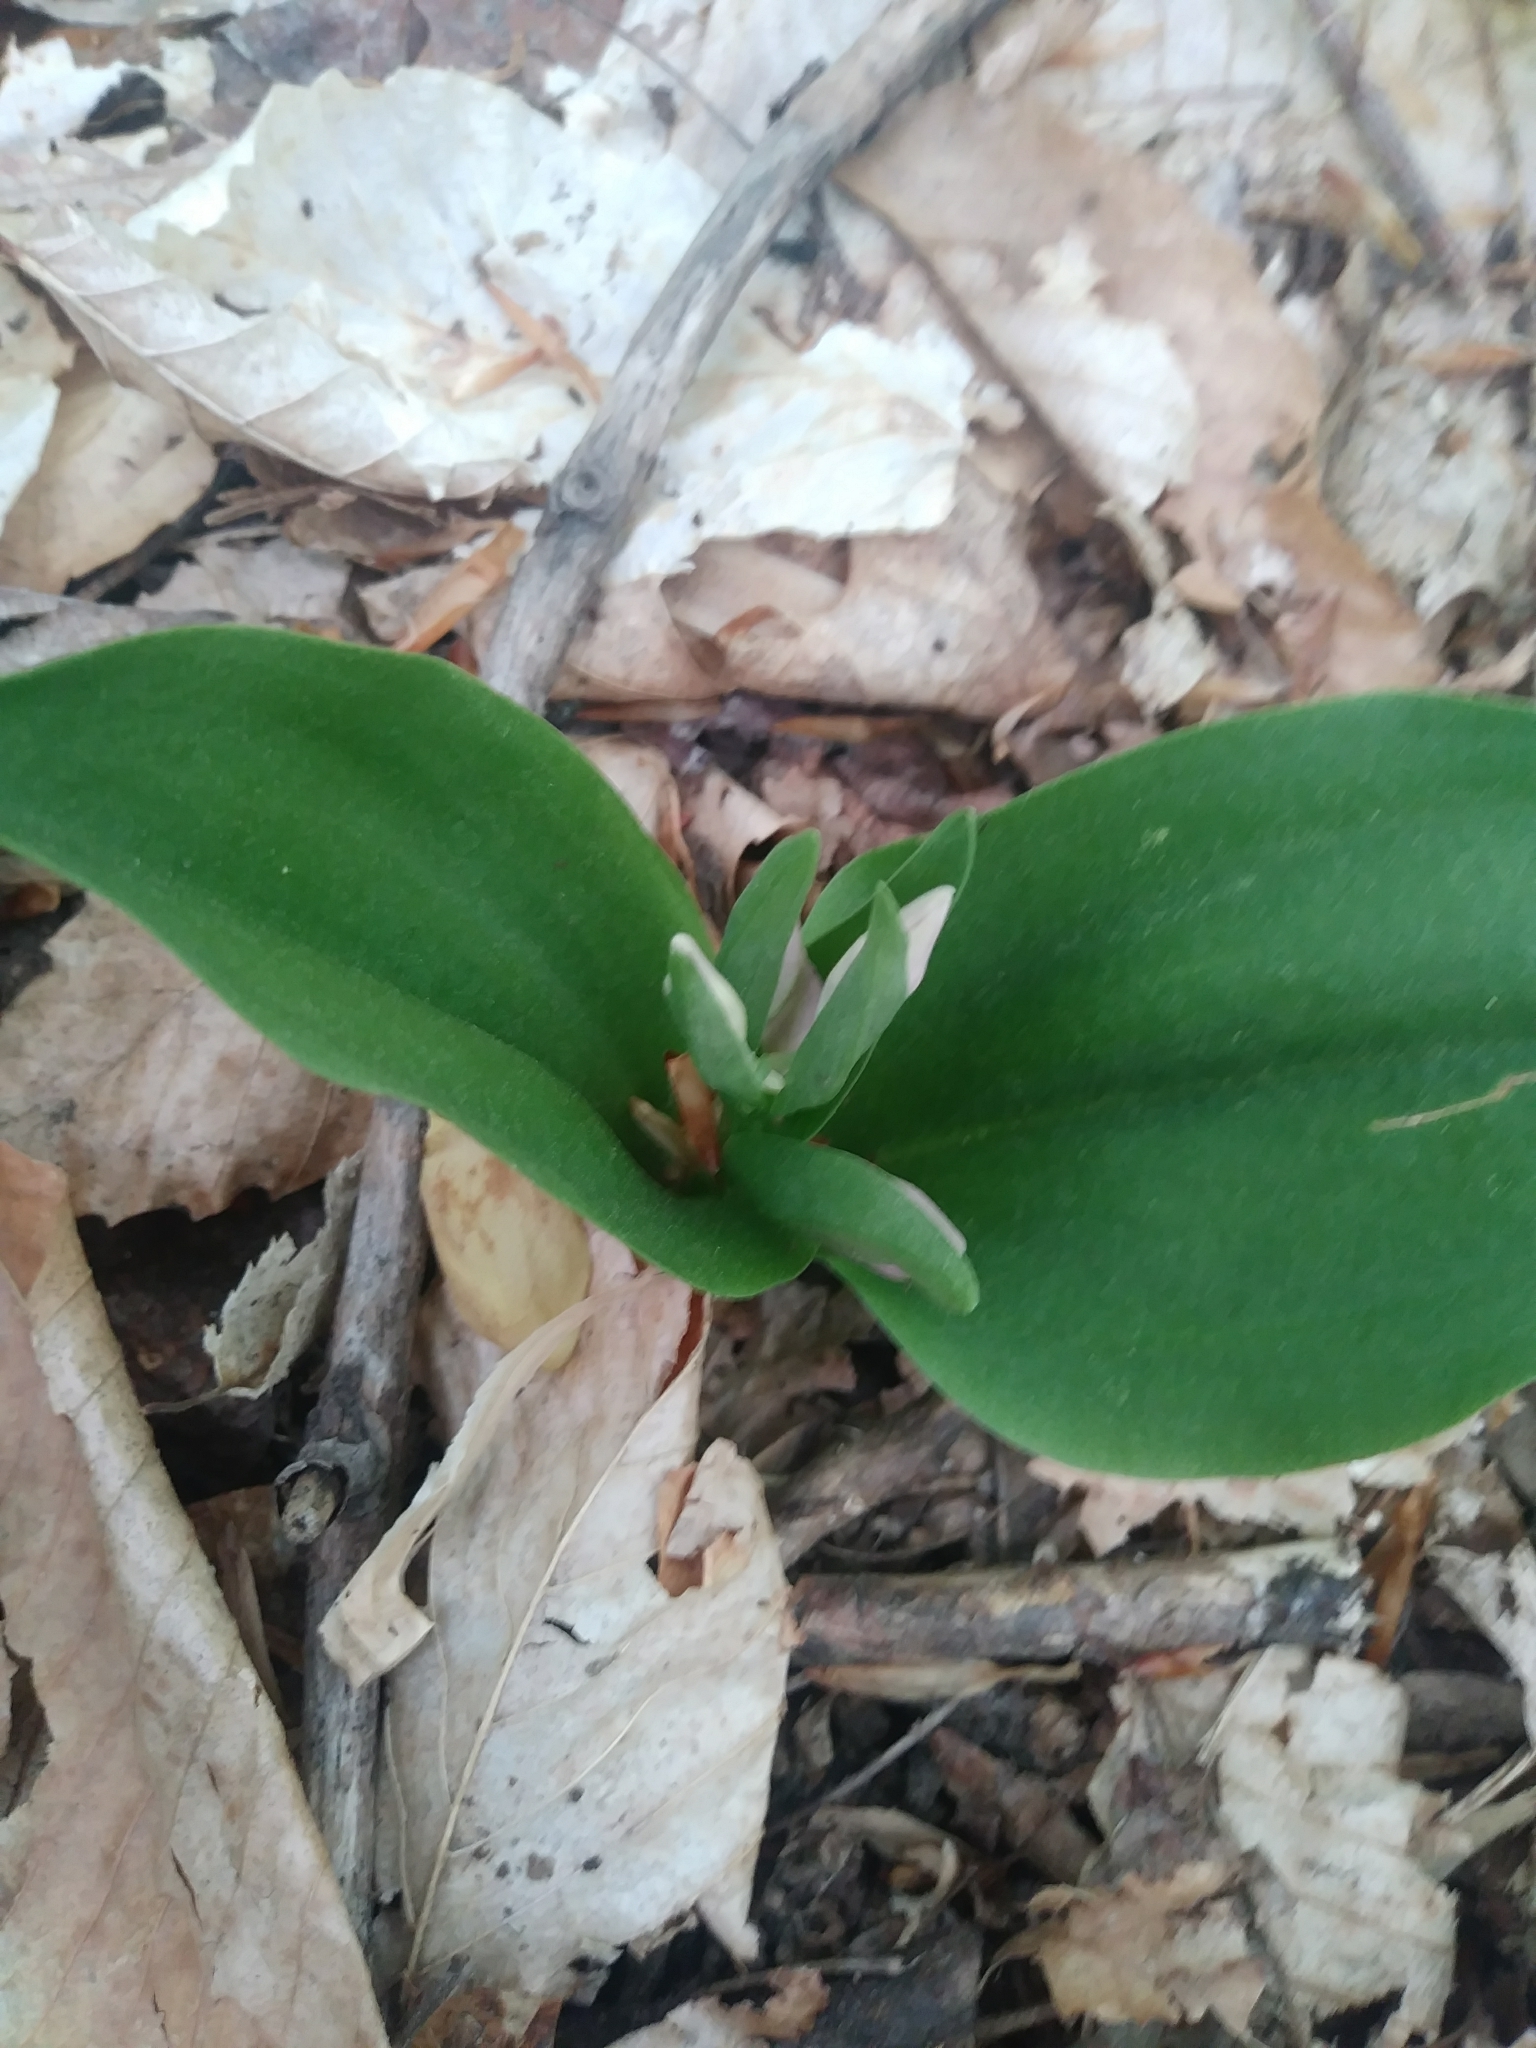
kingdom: Plantae
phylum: Tracheophyta
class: Liliopsida
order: Asparagales
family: Orchidaceae
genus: Galearis
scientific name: Galearis spectabilis
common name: Purple-hooded orchis
